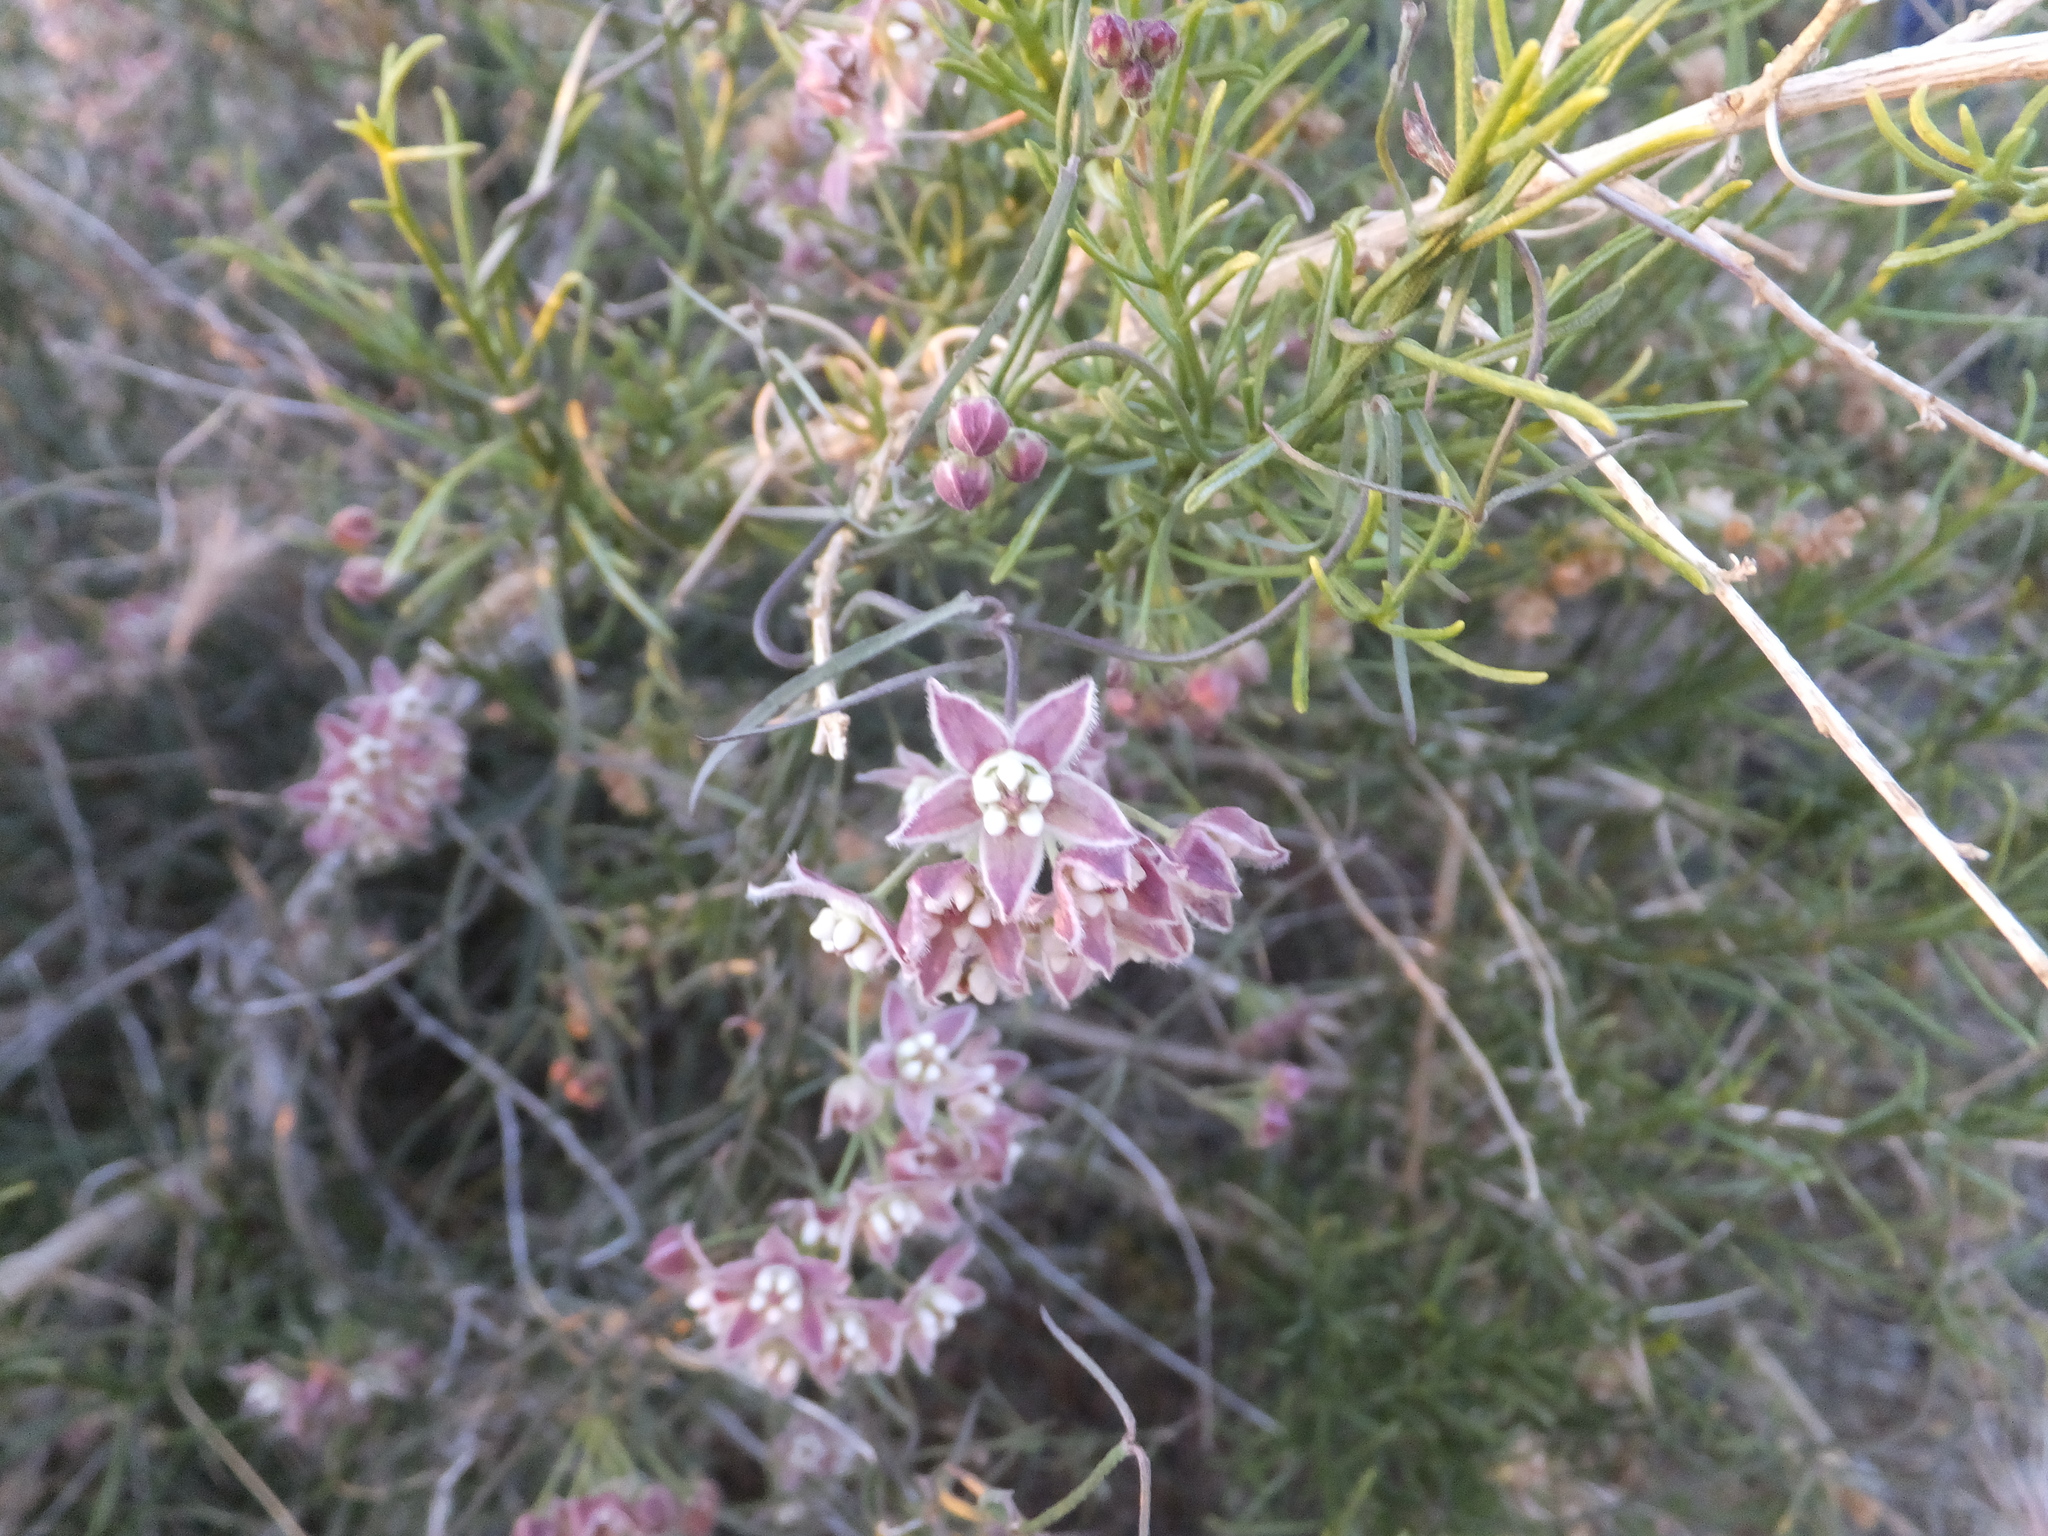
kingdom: Plantae
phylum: Tracheophyta
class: Magnoliopsida
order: Gentianales
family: Apocynaceae
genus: Funastrum
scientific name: Funastrum heterophyllum
